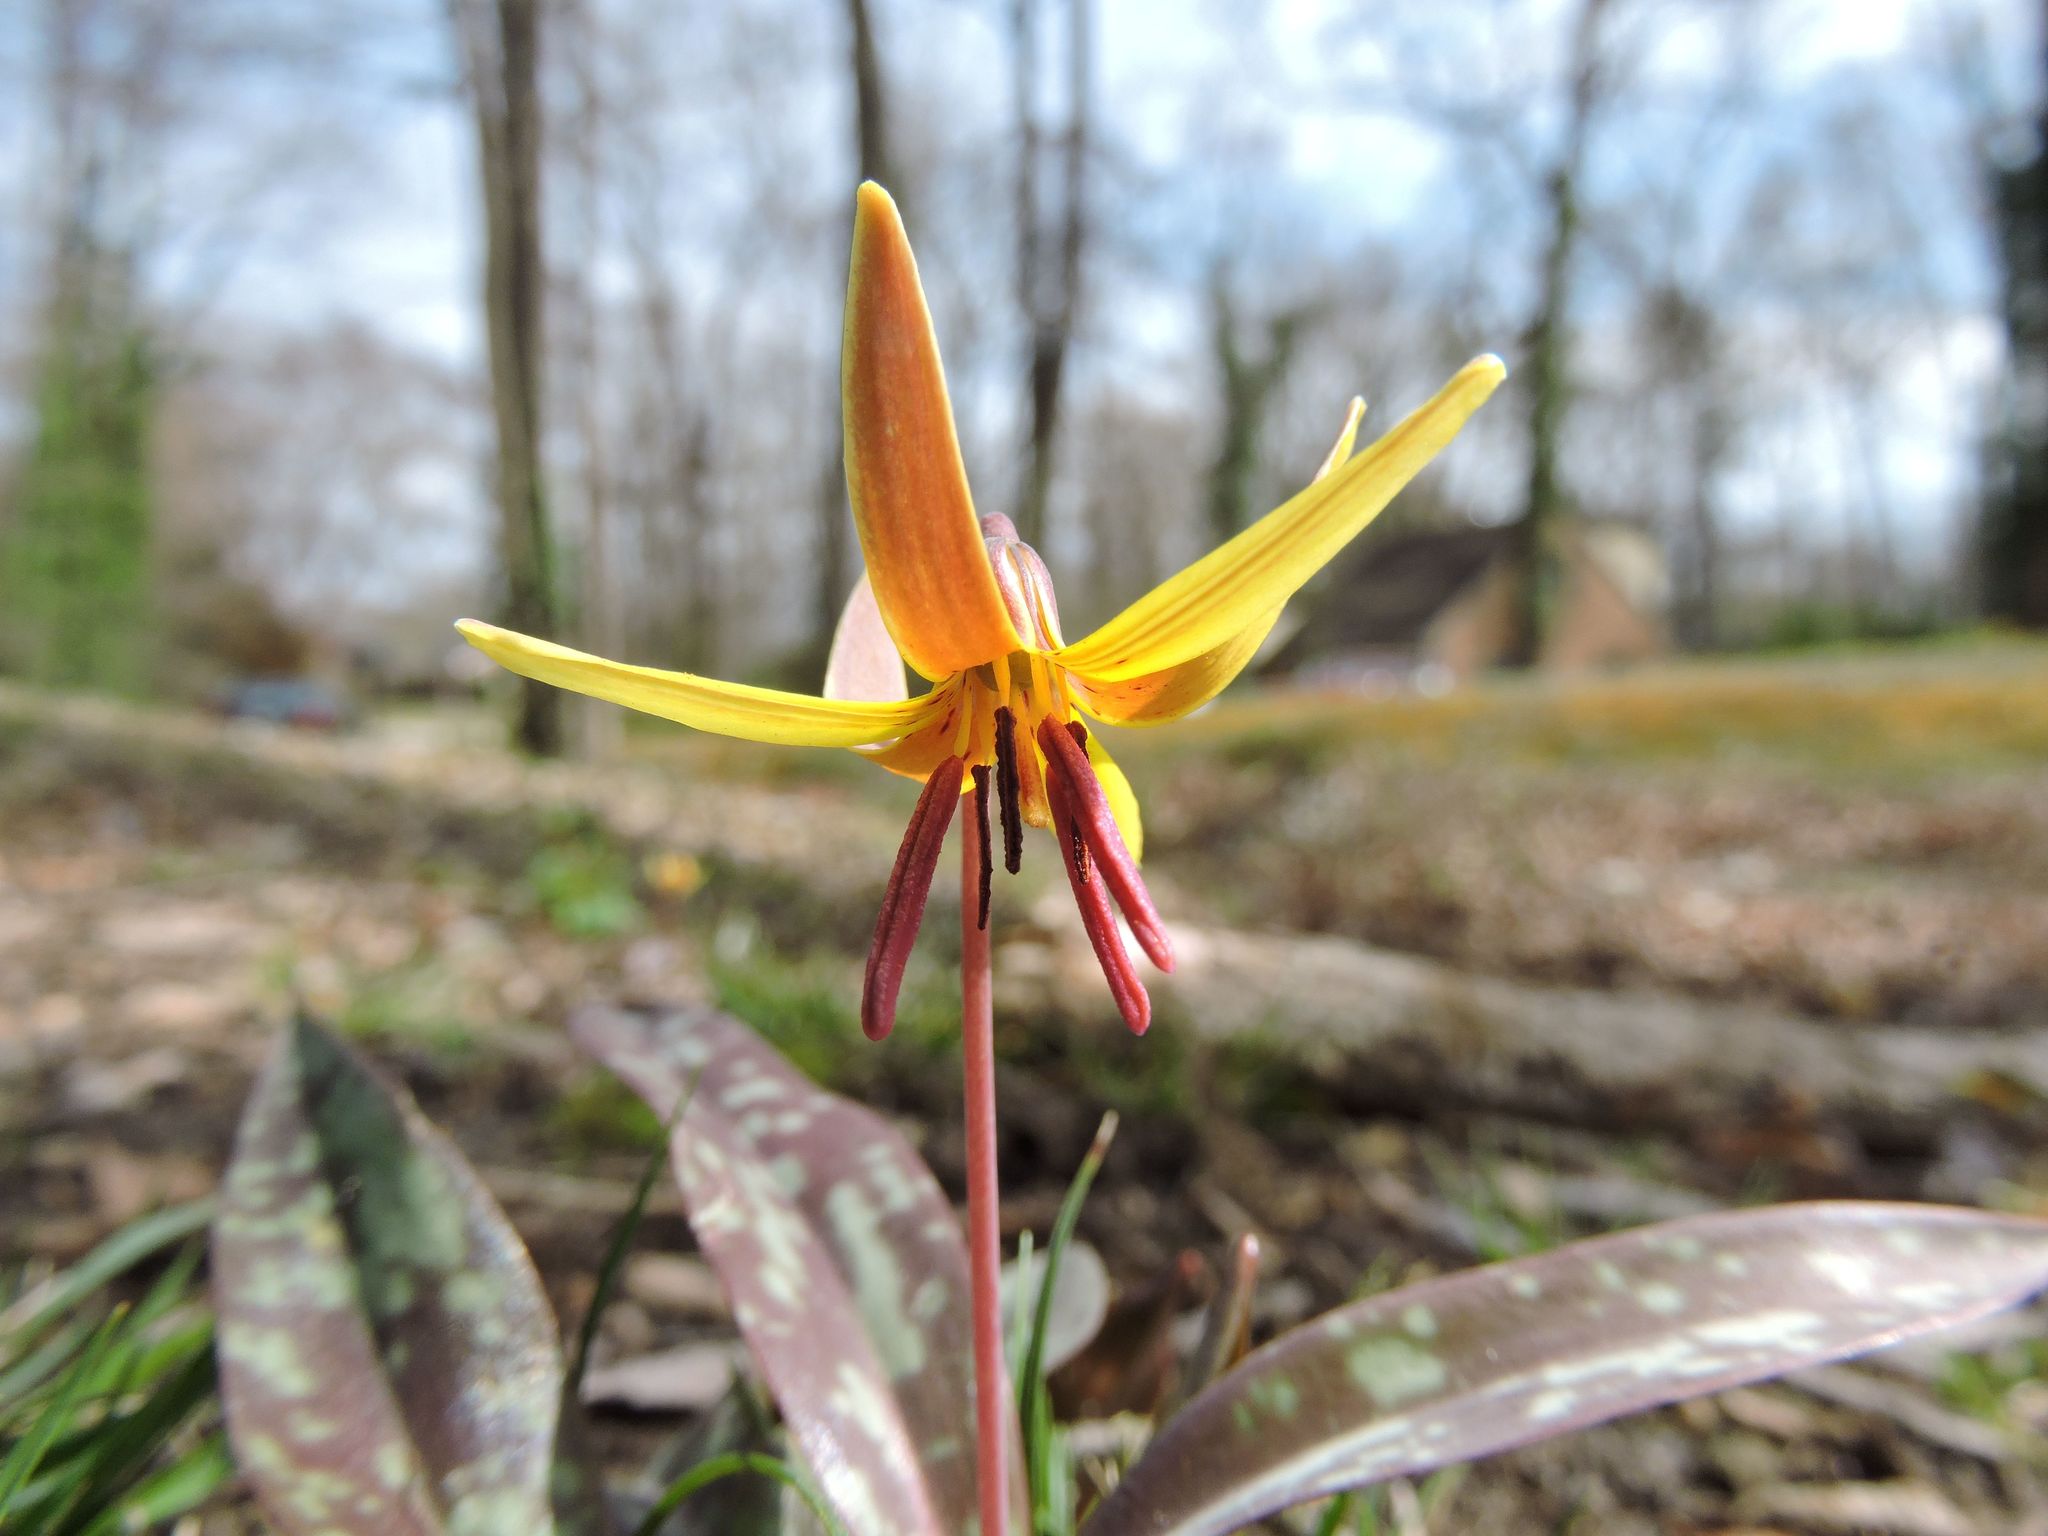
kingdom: Plantae
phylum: Tracheophyta
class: Liliopsida
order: Liliales
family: Liliaceae
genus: Erythronium
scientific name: Erythronium americanum
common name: Yellow adder's-tongue
